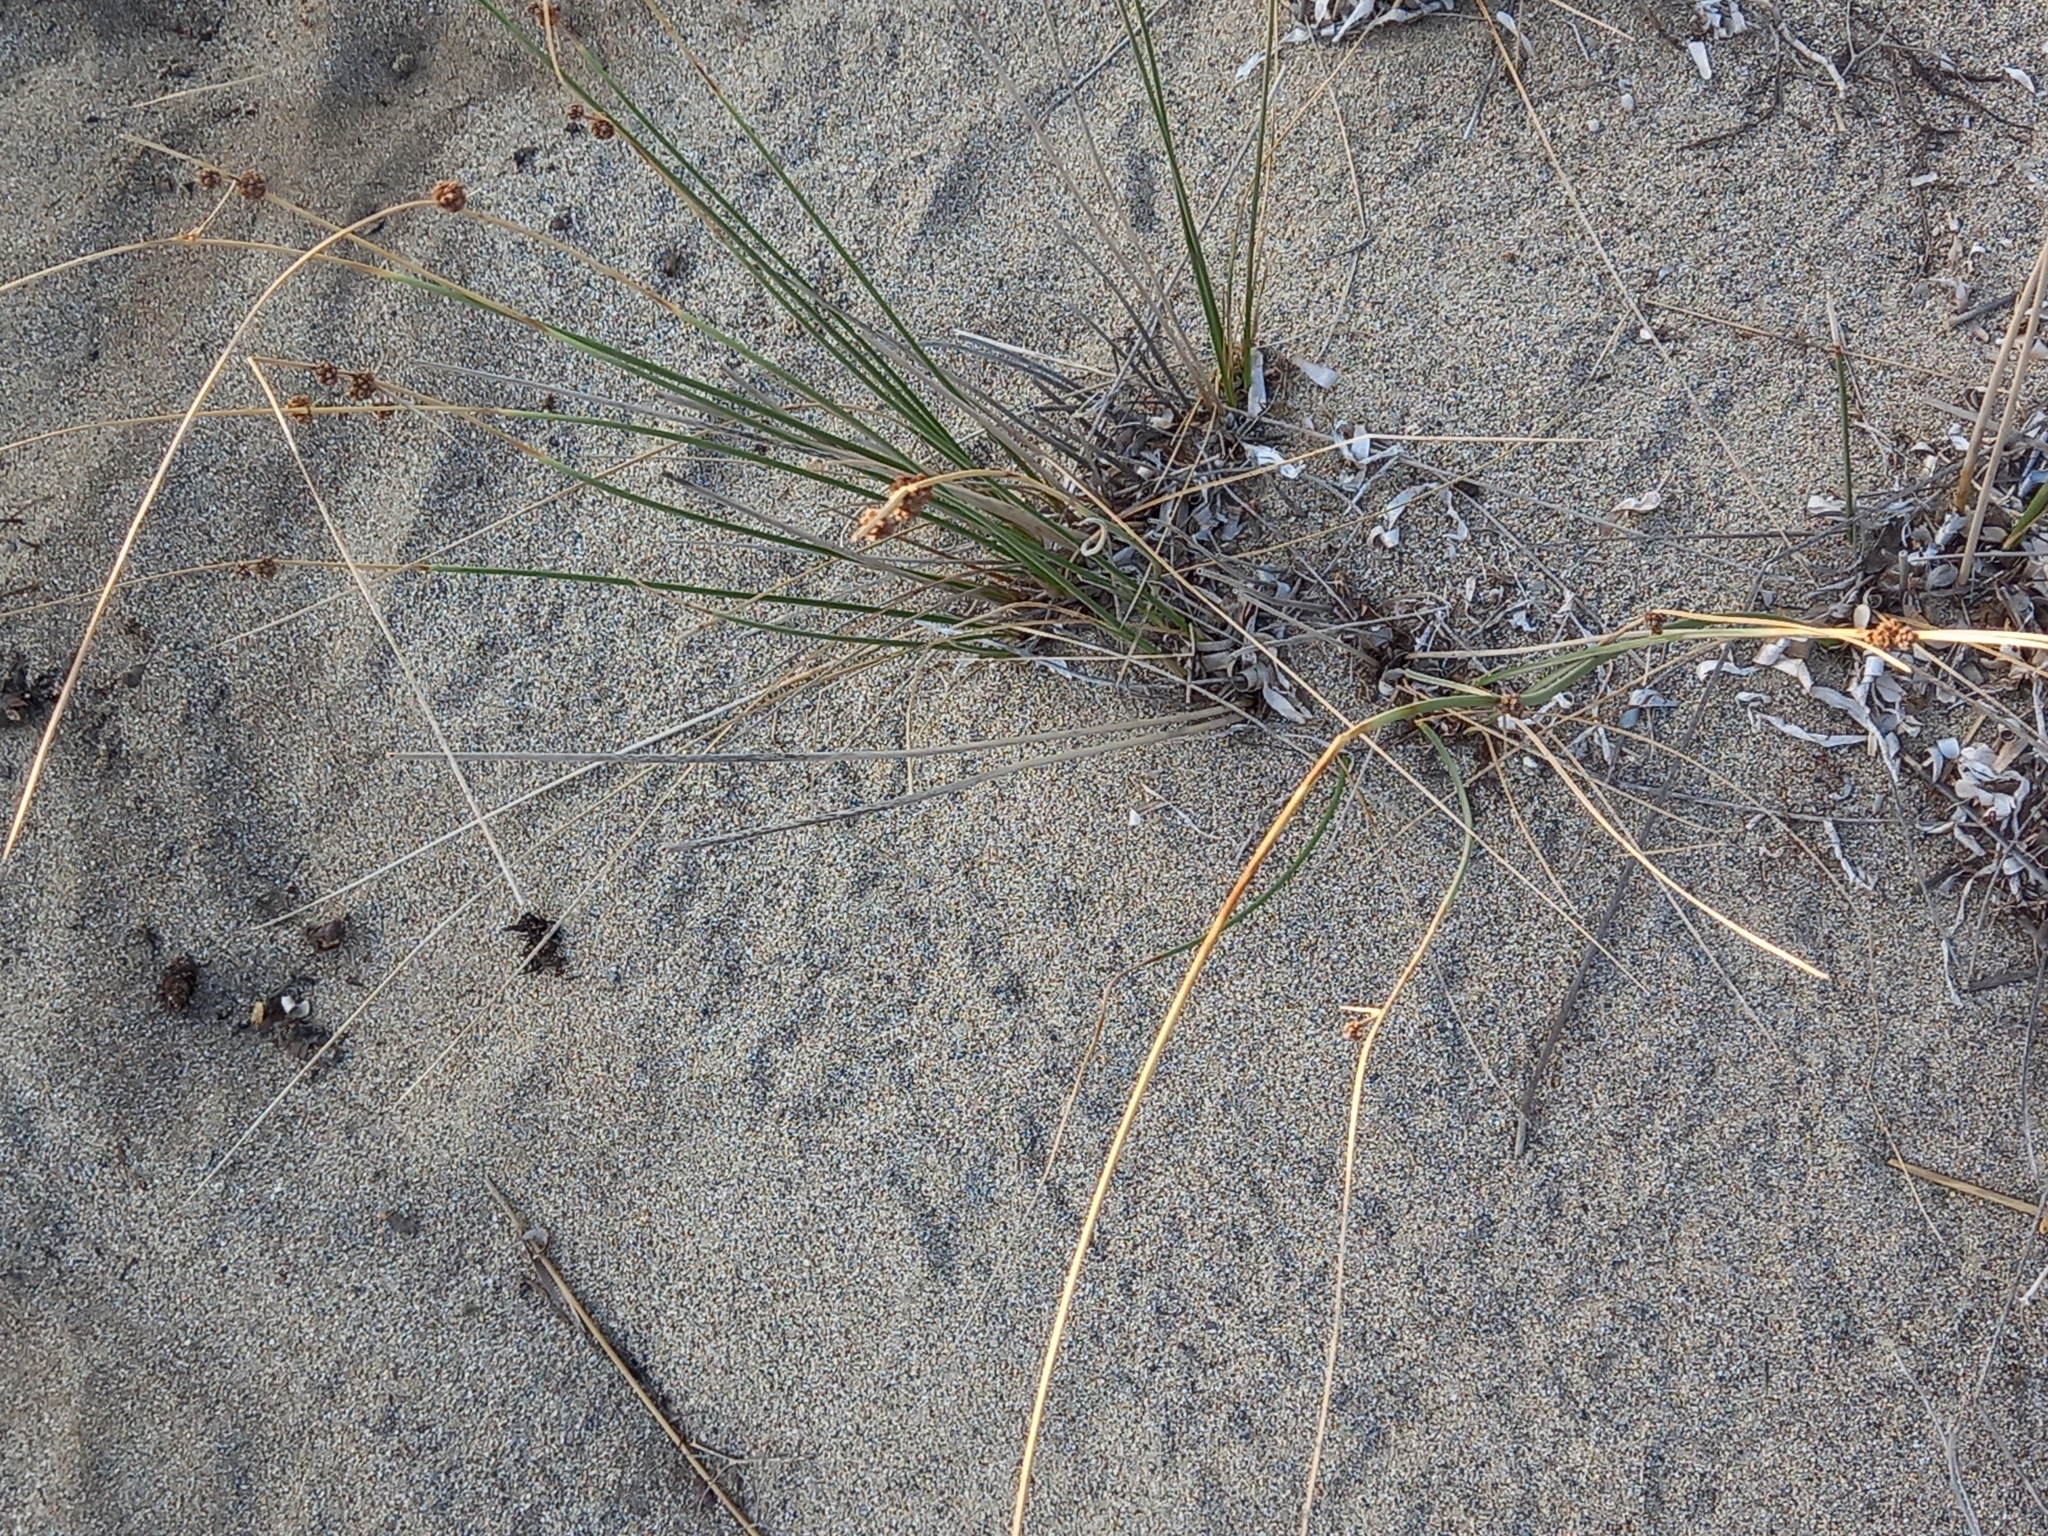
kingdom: Plantae
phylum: Tracheophyta
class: Liliopsida
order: Poales
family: Cyperaceae
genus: Scirpoides
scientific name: Scirpoides holoschoenus
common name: Round-headed club-rush
